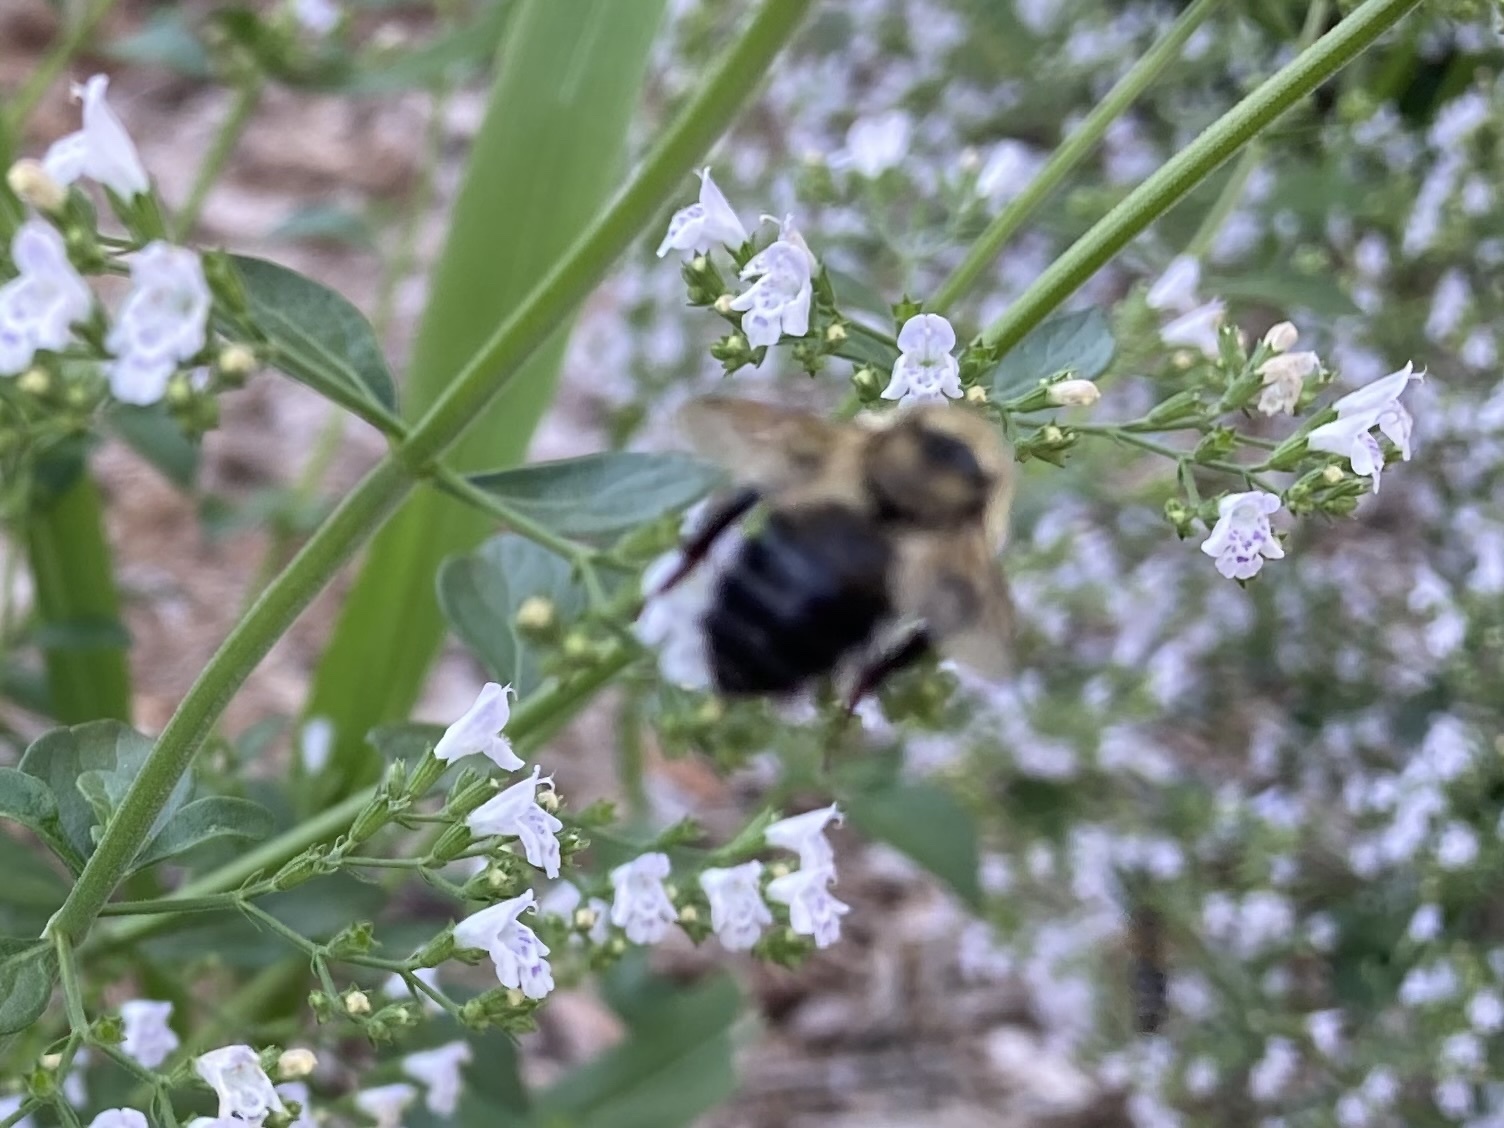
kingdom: Animalia
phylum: Arthropoda
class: Insecta
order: Hymenoptera
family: Apidae
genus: Bombus
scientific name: Bombus rufocinctus
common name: Red-belted bumble bee
